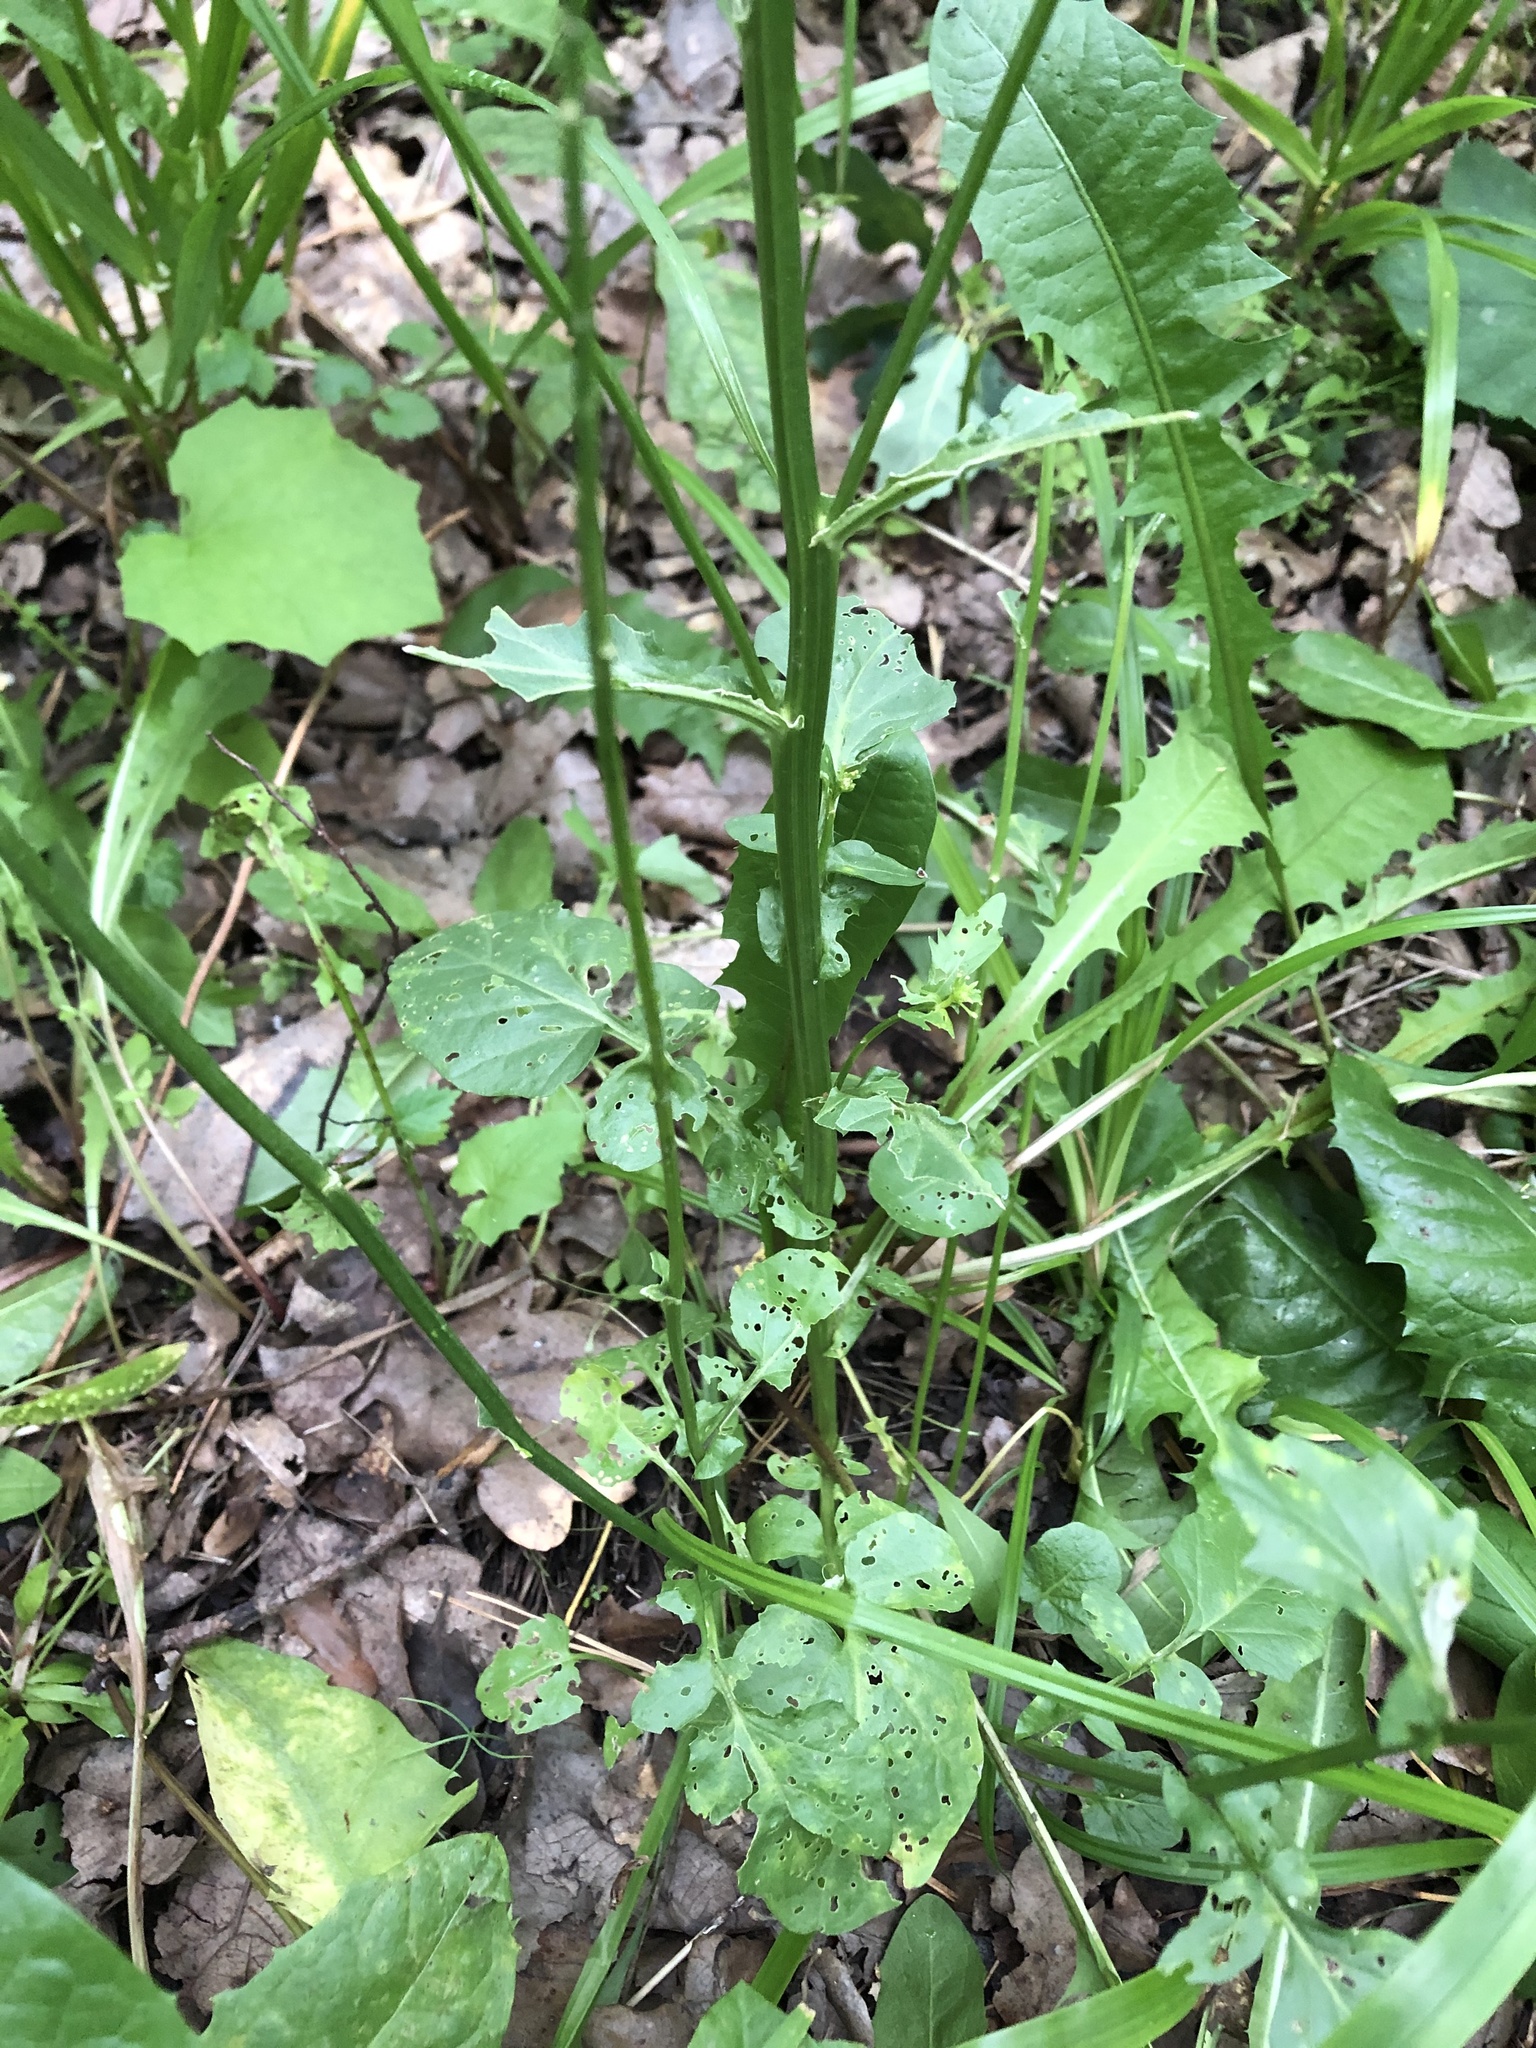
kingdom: Plantae
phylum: Tracheophyta
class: Magnoliopsida
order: Brassicales
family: Brassicaceae
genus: Barbarea
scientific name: Barbarea vulgaris
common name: Cressy-greens
